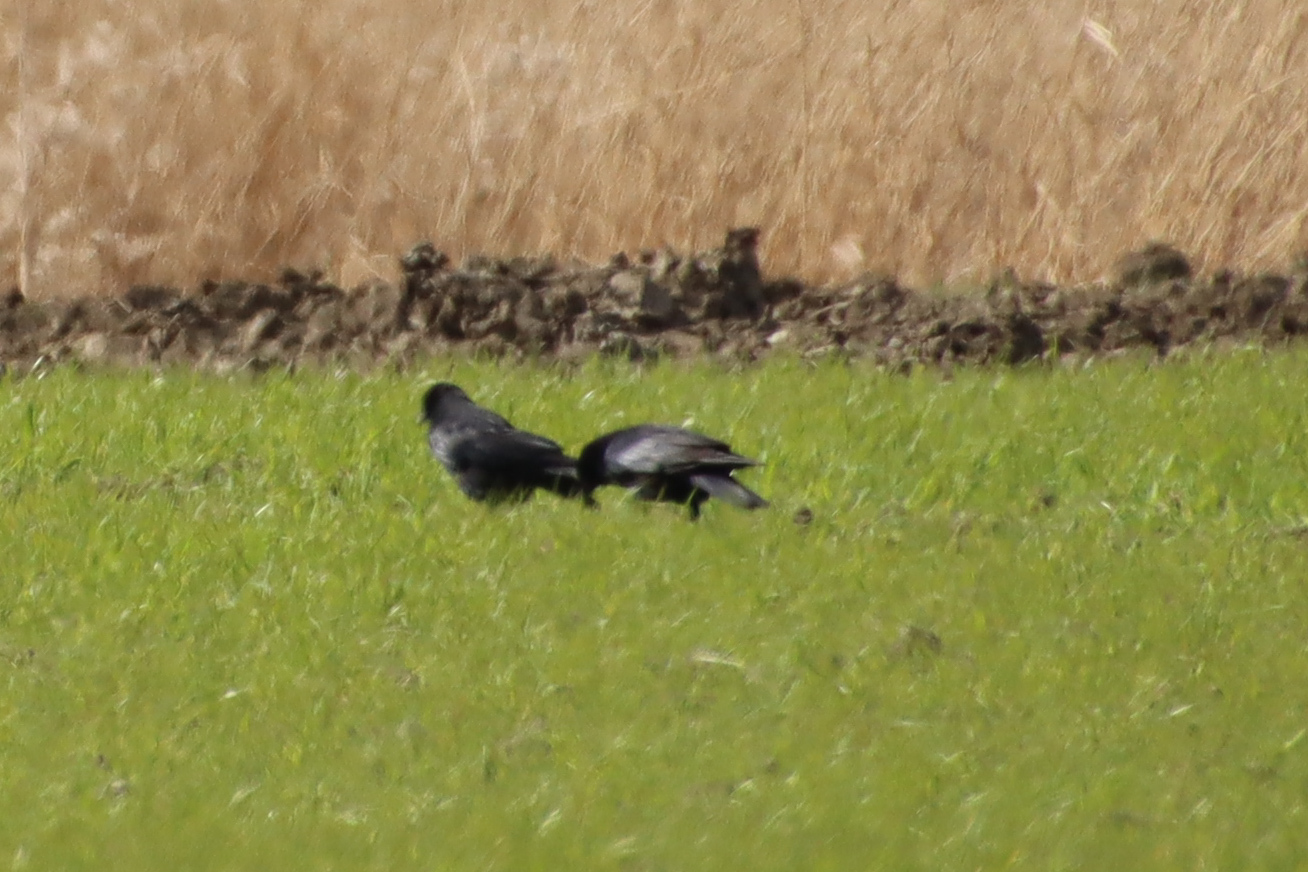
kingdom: Animalia
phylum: Chordata
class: Aves
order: Passeriformes
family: Corvidae
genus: Corvus
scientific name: Corvus corone
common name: Carrion crow
